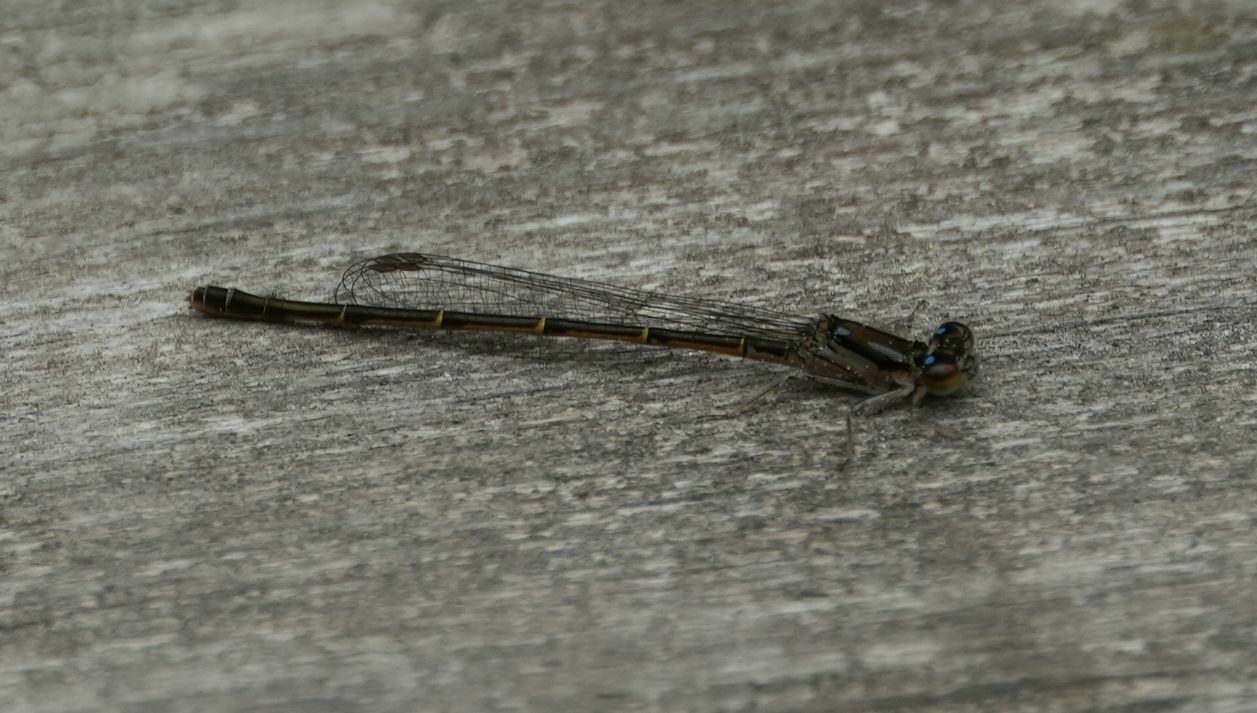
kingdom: Animalia
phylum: Arthropoda
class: Insecta
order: Odonata
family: Coenagrionidae
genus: Ischnura
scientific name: Ischnura posita
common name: Fragile forktail
